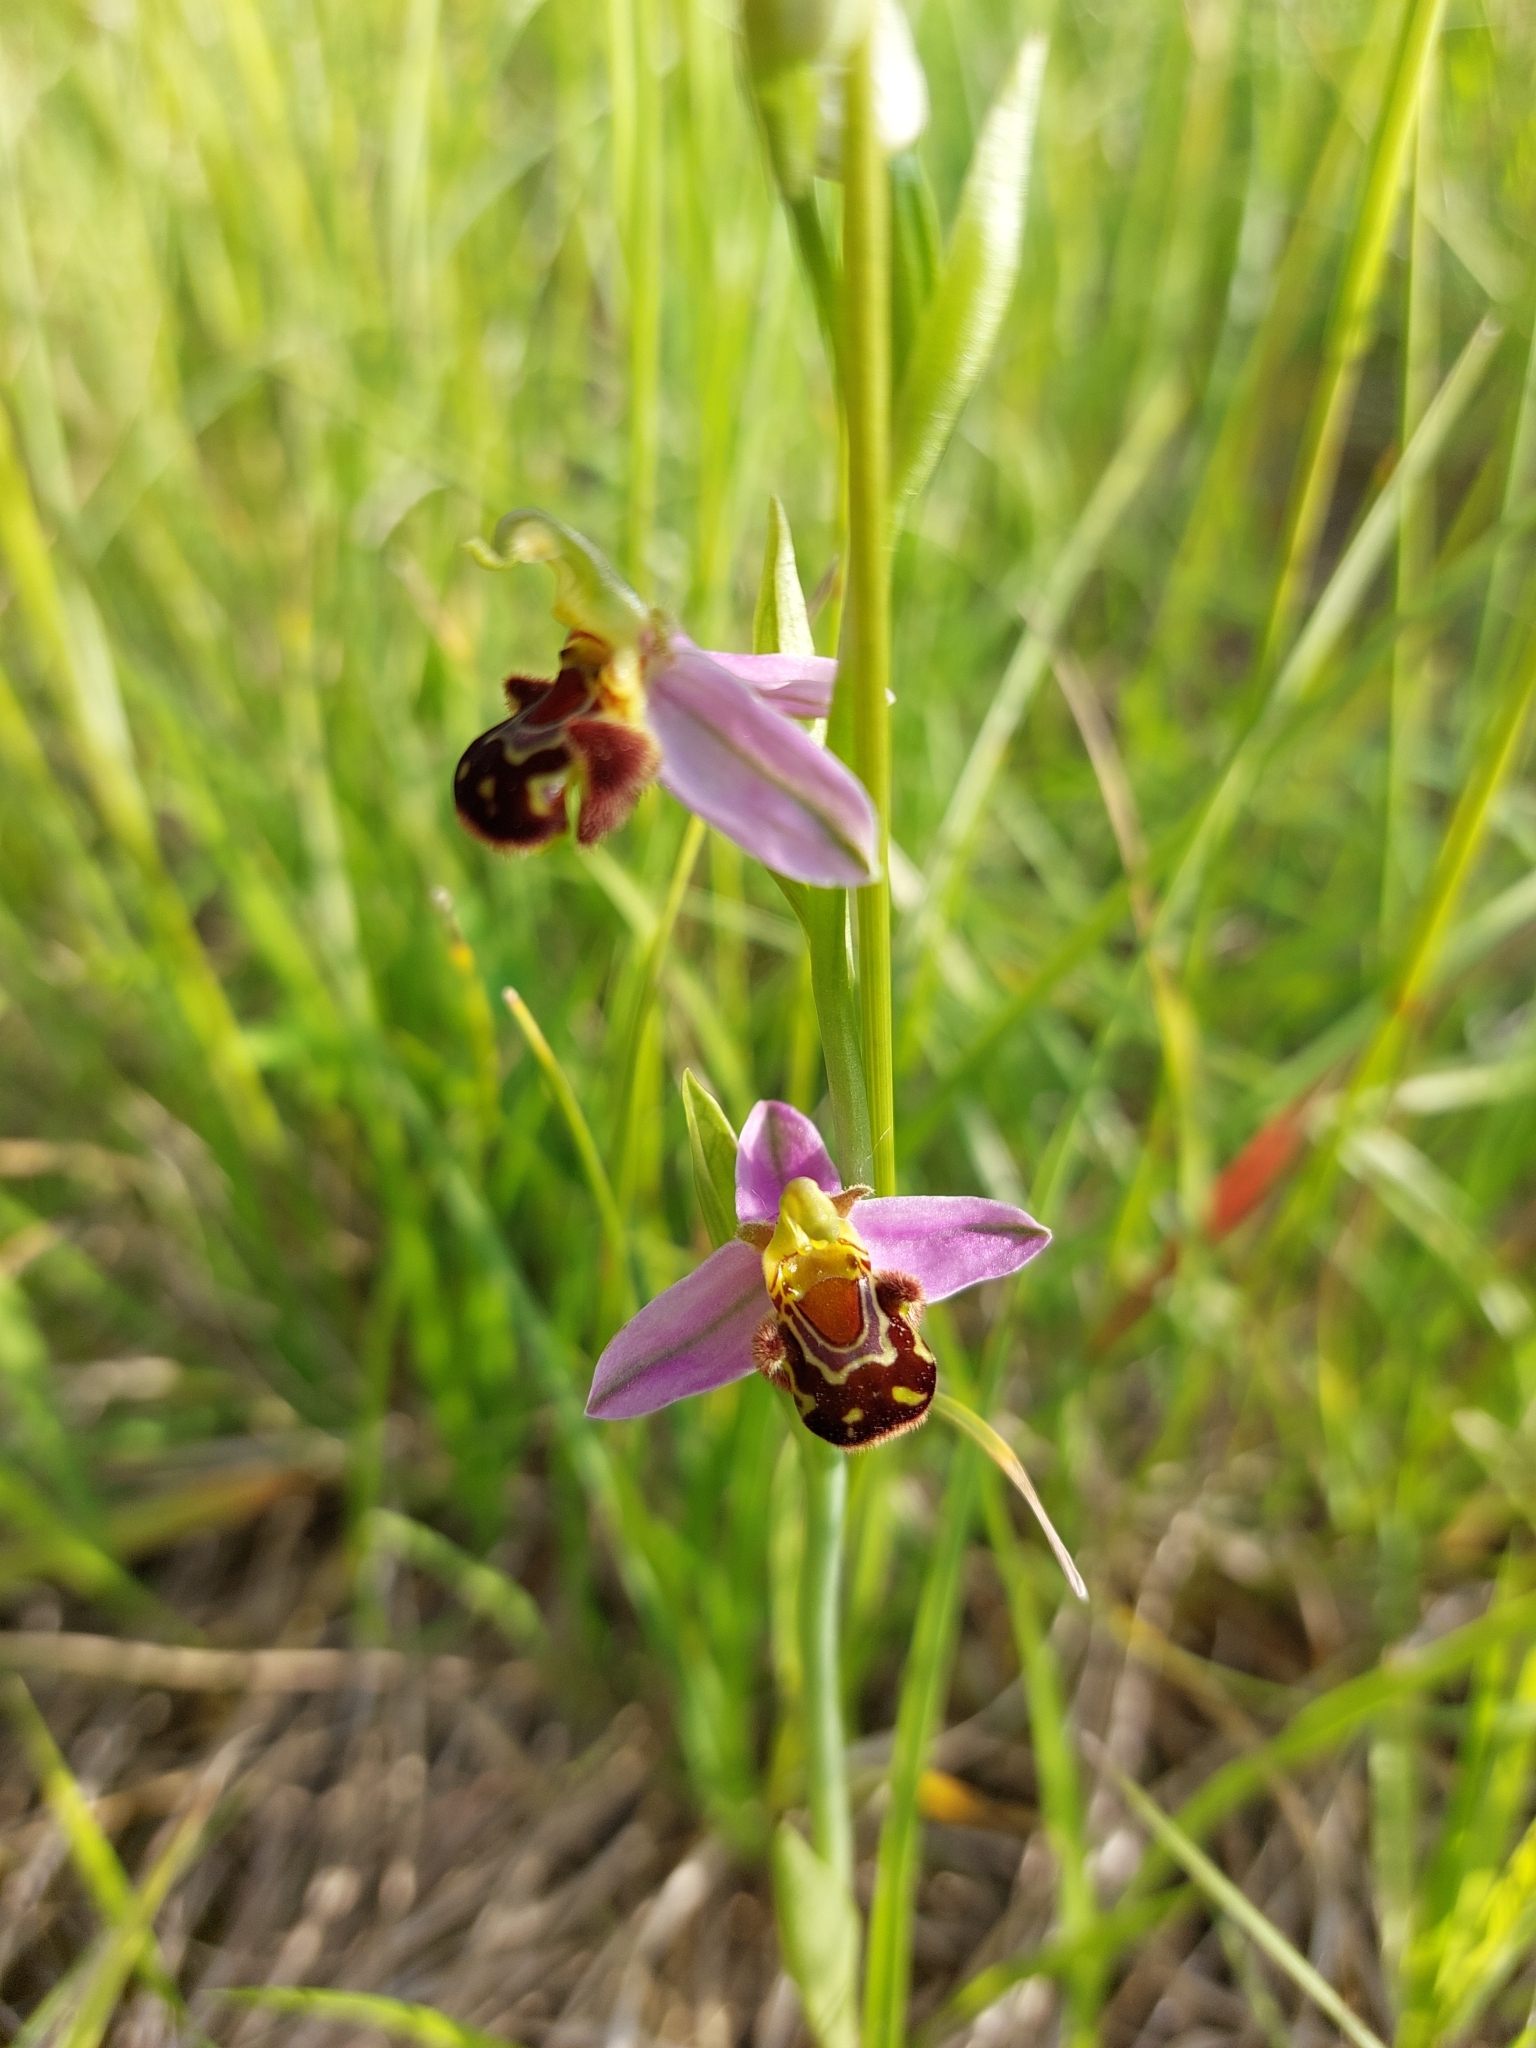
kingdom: Plantae
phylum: Tracheophyta
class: Liliopsida
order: Asparagales
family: Orchidaceae
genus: Ophrys
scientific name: Ophrys apifera
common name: Bee orchid
